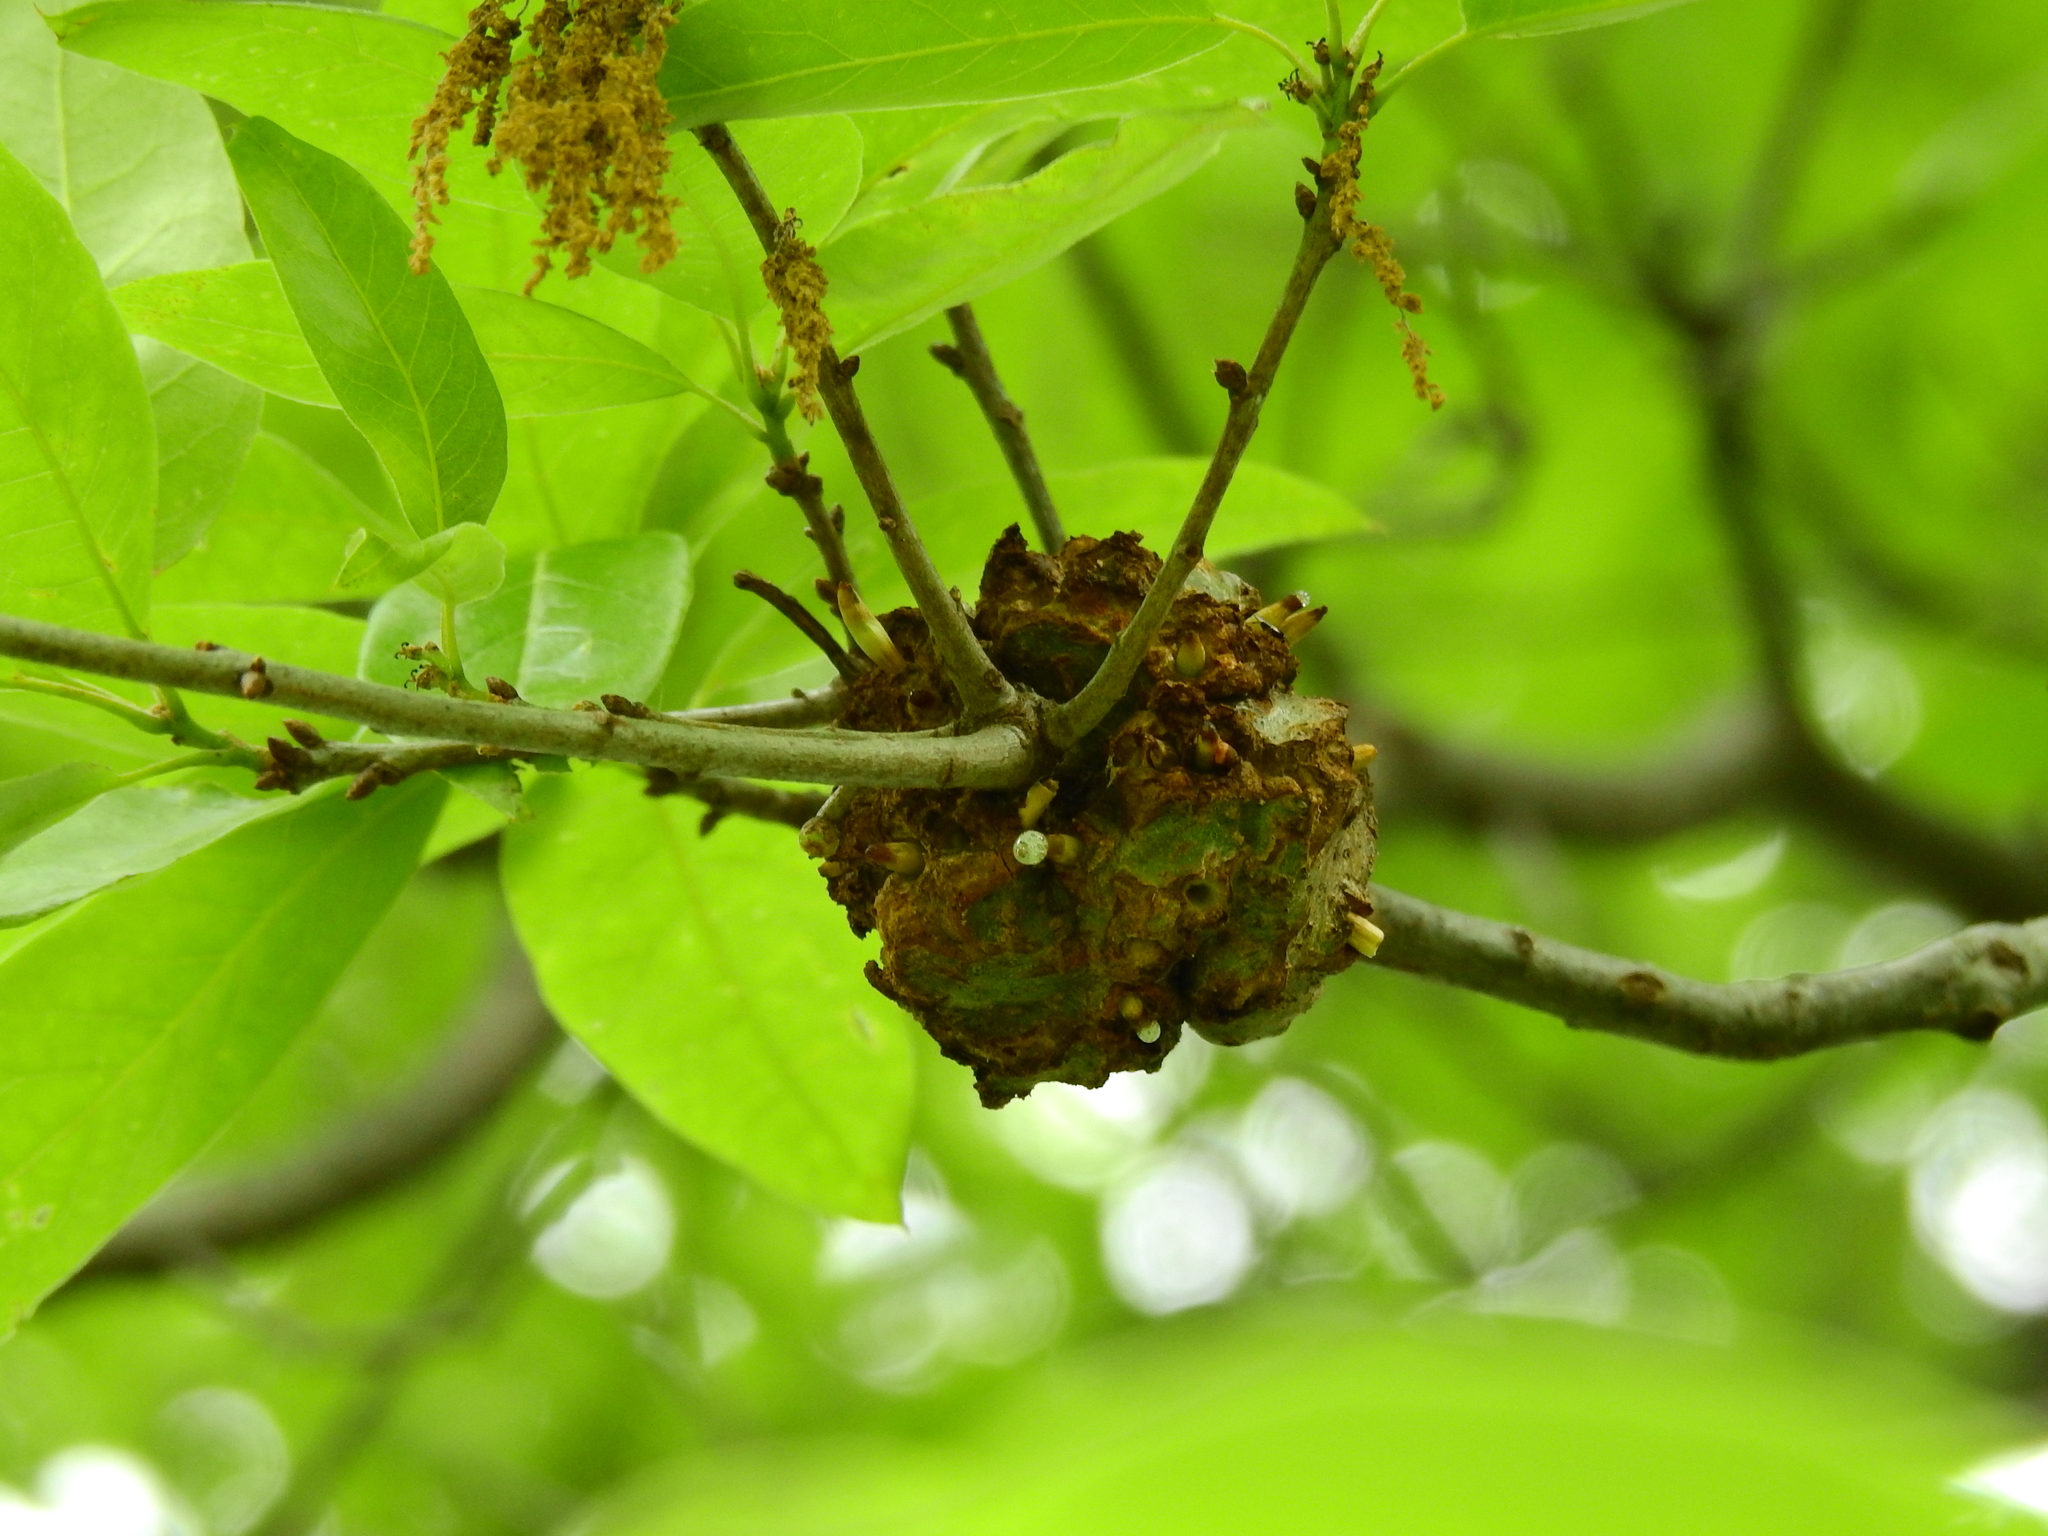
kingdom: Animalia
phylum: Arthropoda
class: Insecta
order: Hymenoptera
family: Cynipidae
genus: Callirhytis
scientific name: Callirhytis
